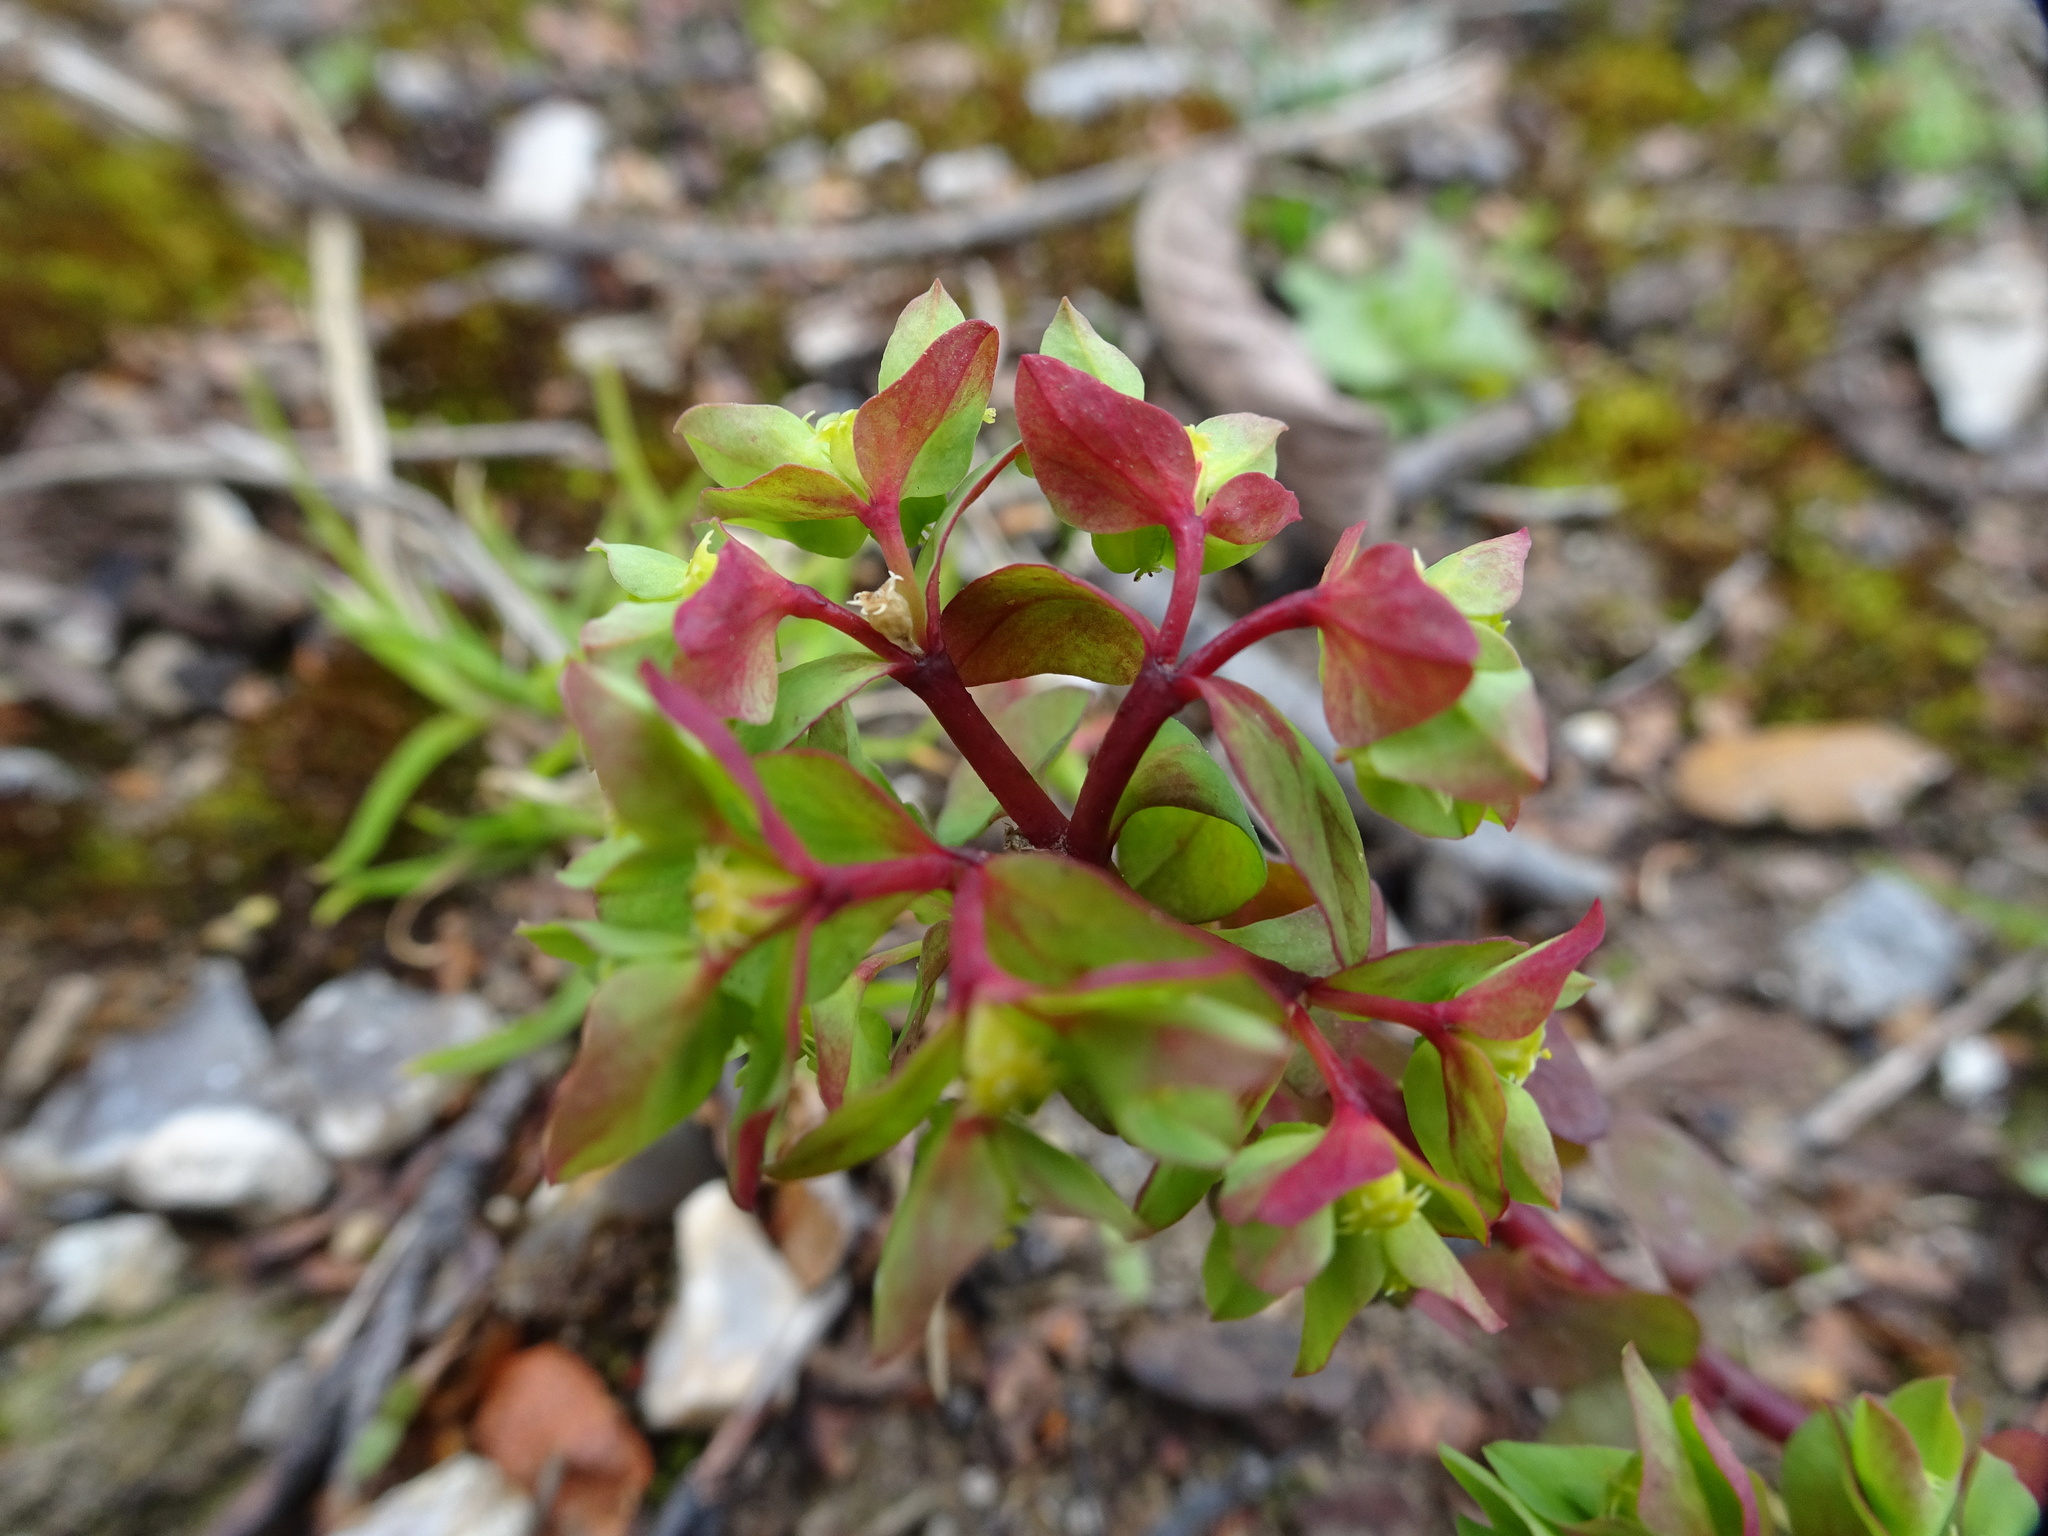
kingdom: Plantae
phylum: Tracheophyta
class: Magnoliopsida
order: Malpighiales
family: Euphorbiaceae
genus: Euphorbia
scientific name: Euphorbia peplus
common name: Petty spurge
